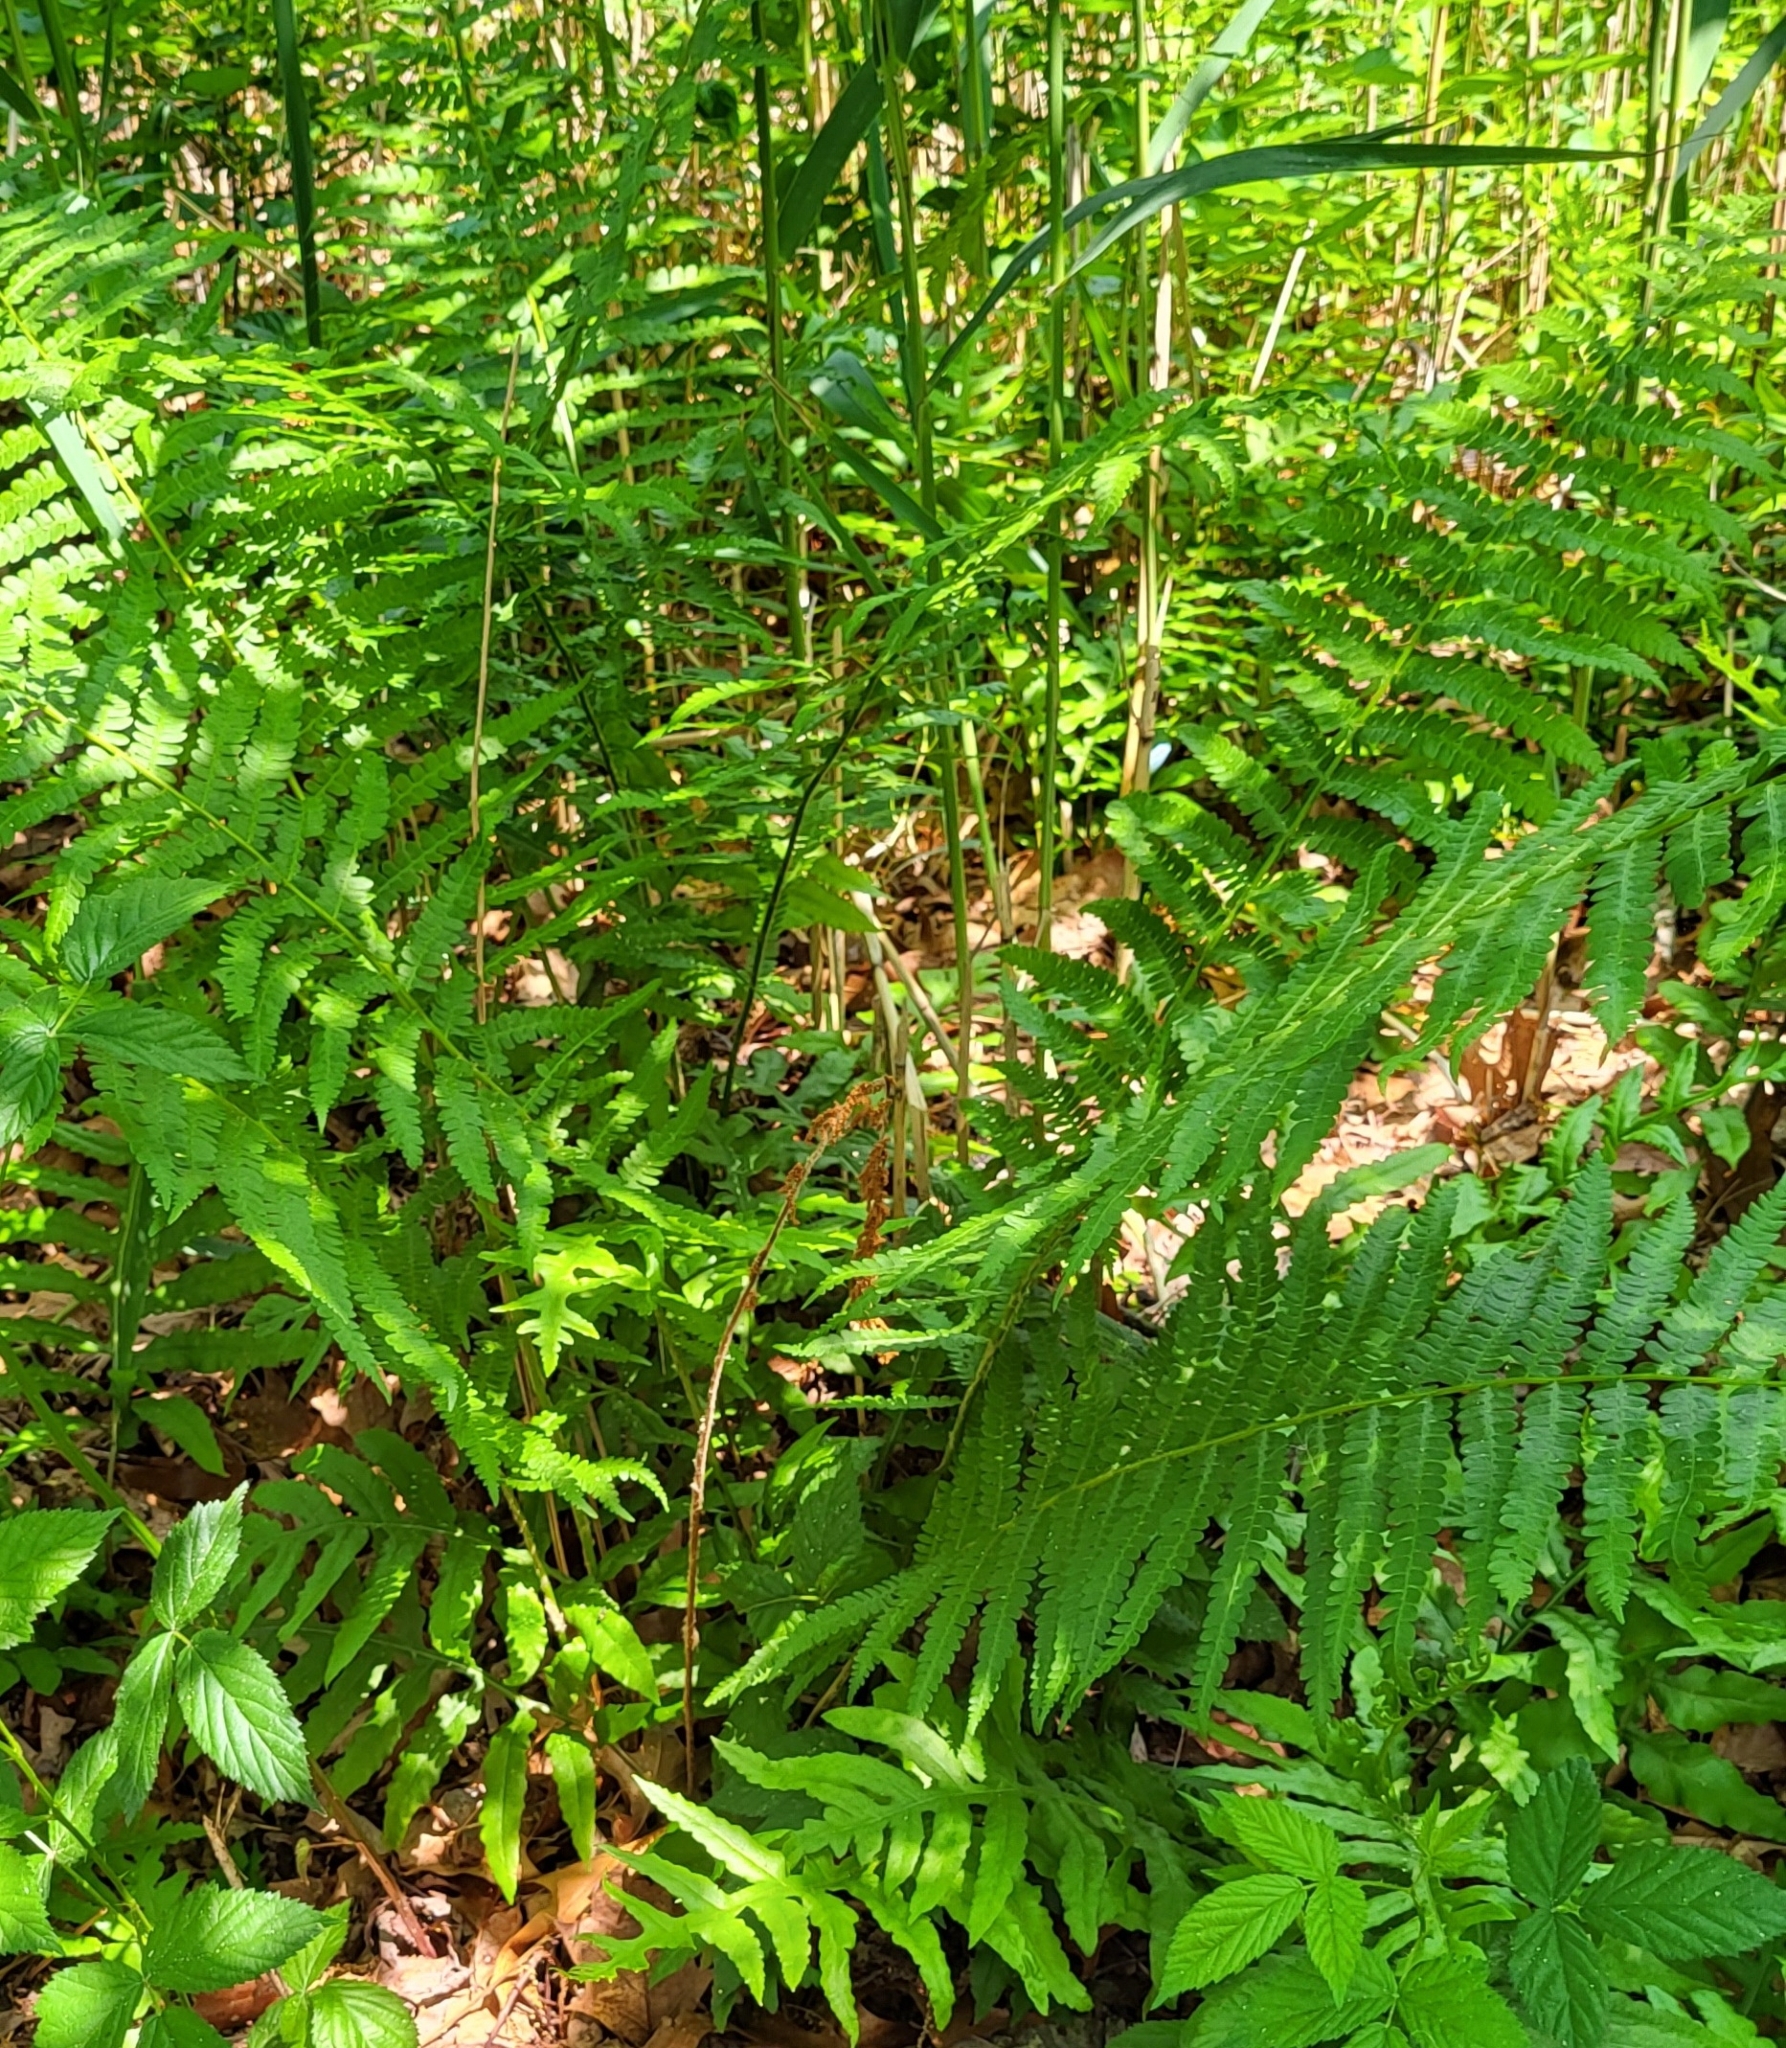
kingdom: Plantae
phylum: Tracheophyta
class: Polypodiopsida
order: Osmundales
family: Osmundaceae
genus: Osmundastrum
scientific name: Osmundastrum cinnamomeum
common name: Cinnamon fern
